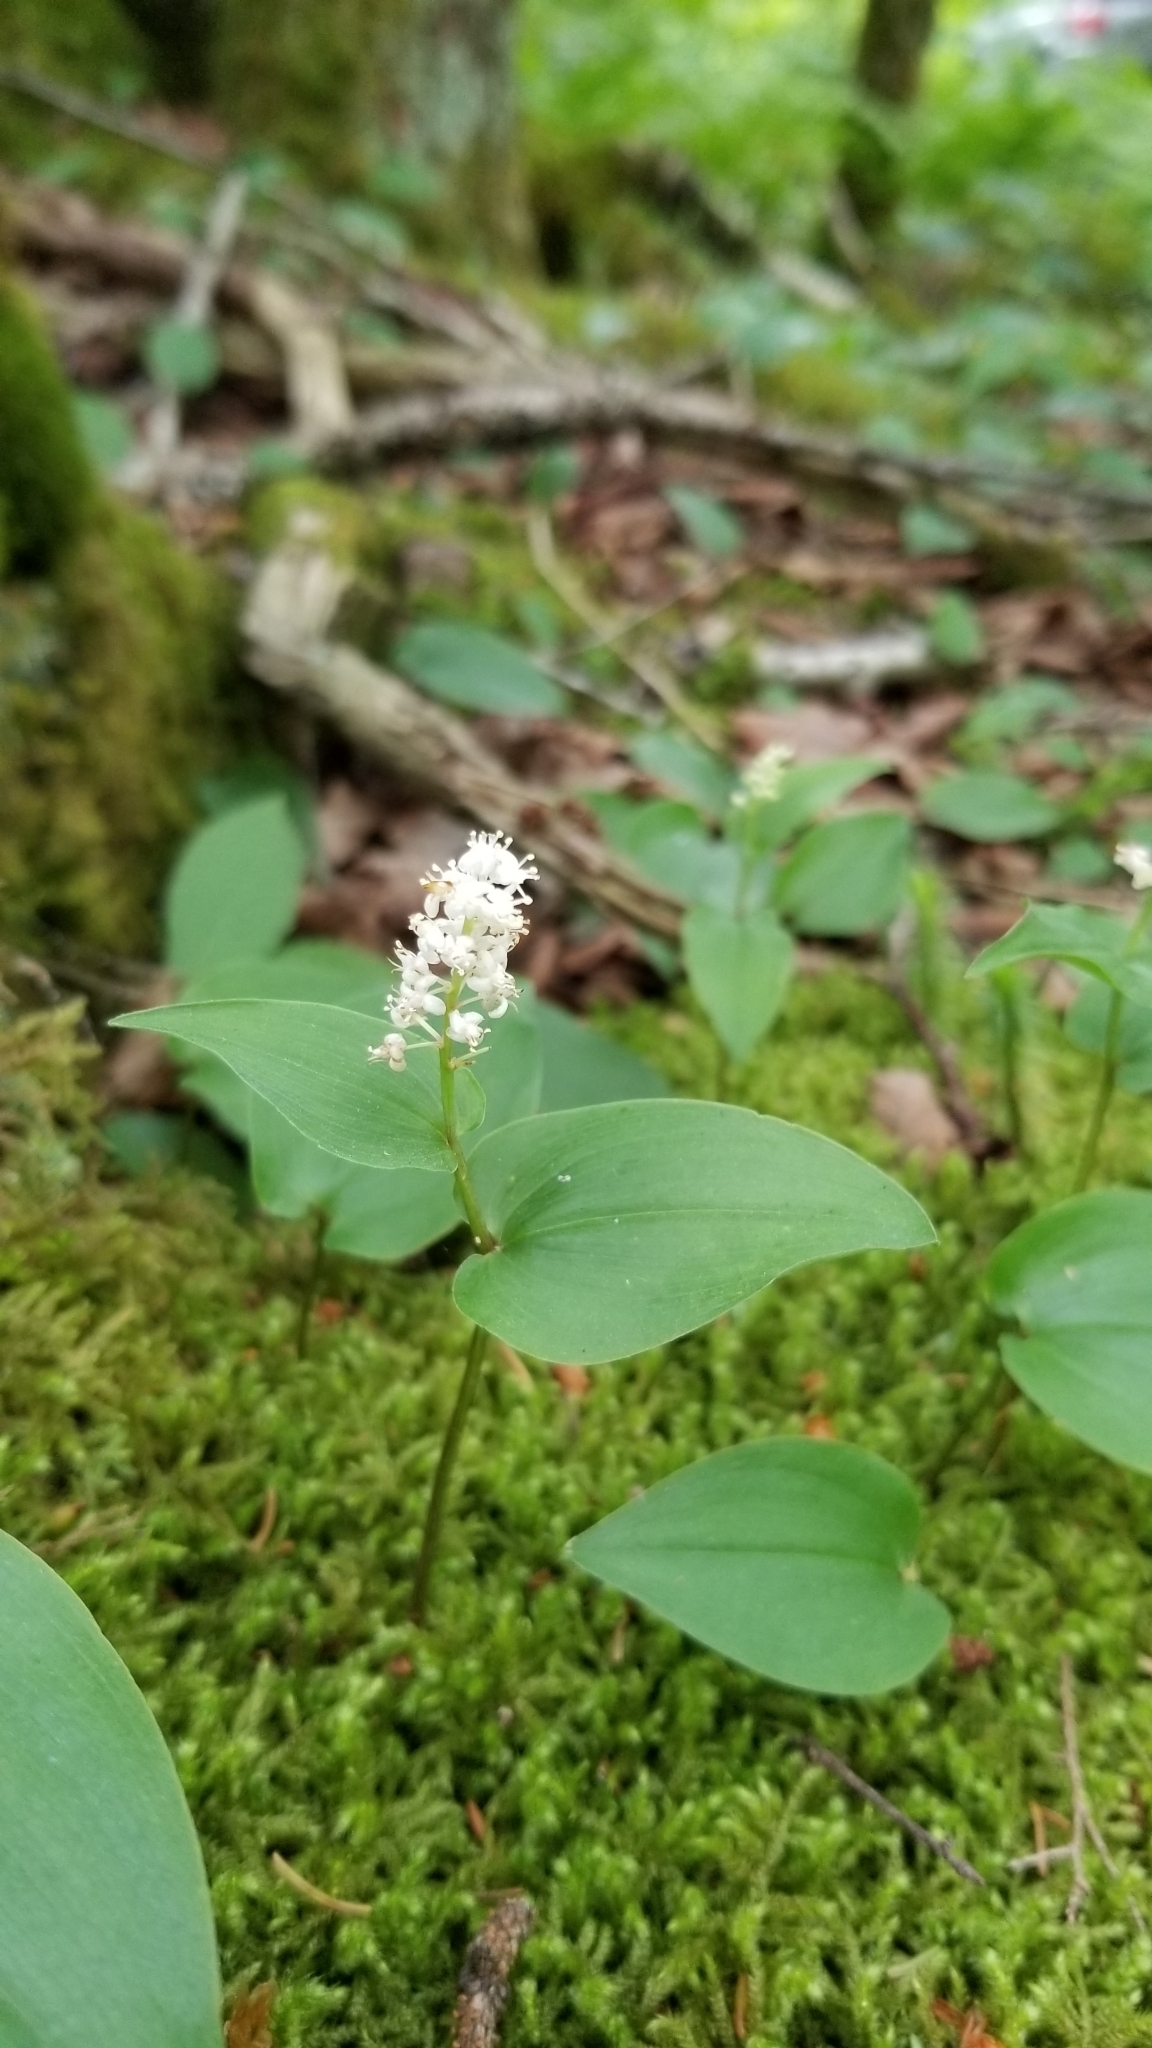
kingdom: Plantae
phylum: Tracheophyta
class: Liliopsida
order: Asparagales
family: Asparagaceae
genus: Maianthemum
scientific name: Maianthemum canadense
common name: False lily-of-the-valley
